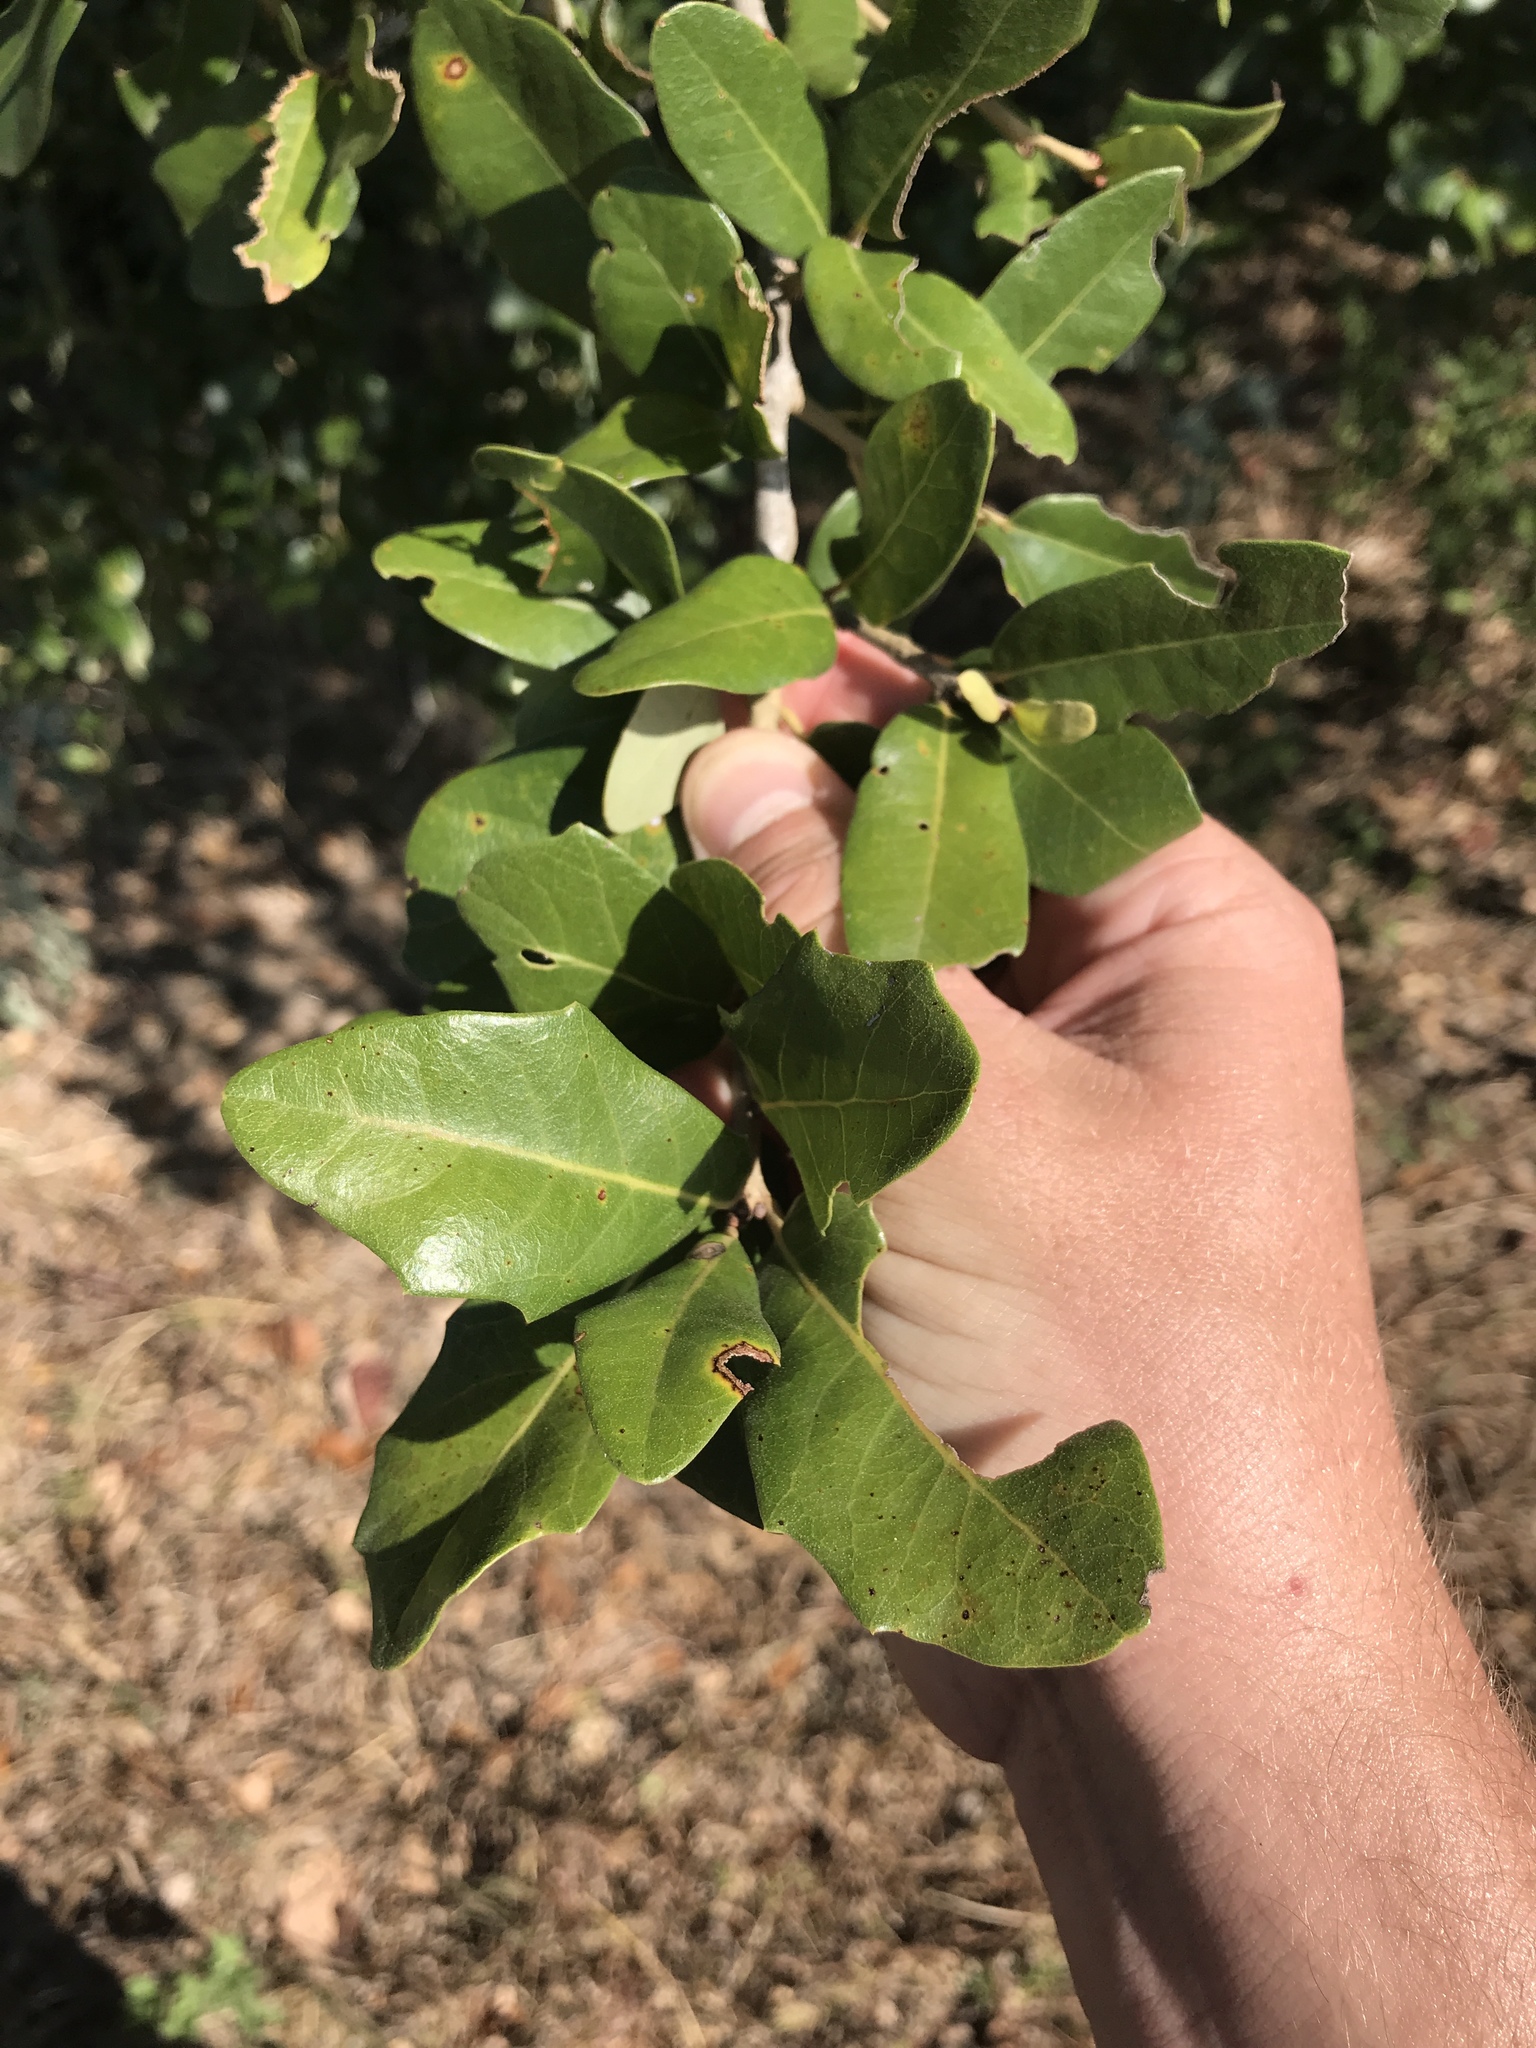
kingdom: Plantae
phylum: Tracheophyta
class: Magnoliopsida
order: Fagales
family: Fagaceae
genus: Quercus
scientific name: Quercus virginiana
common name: Southern live oak
